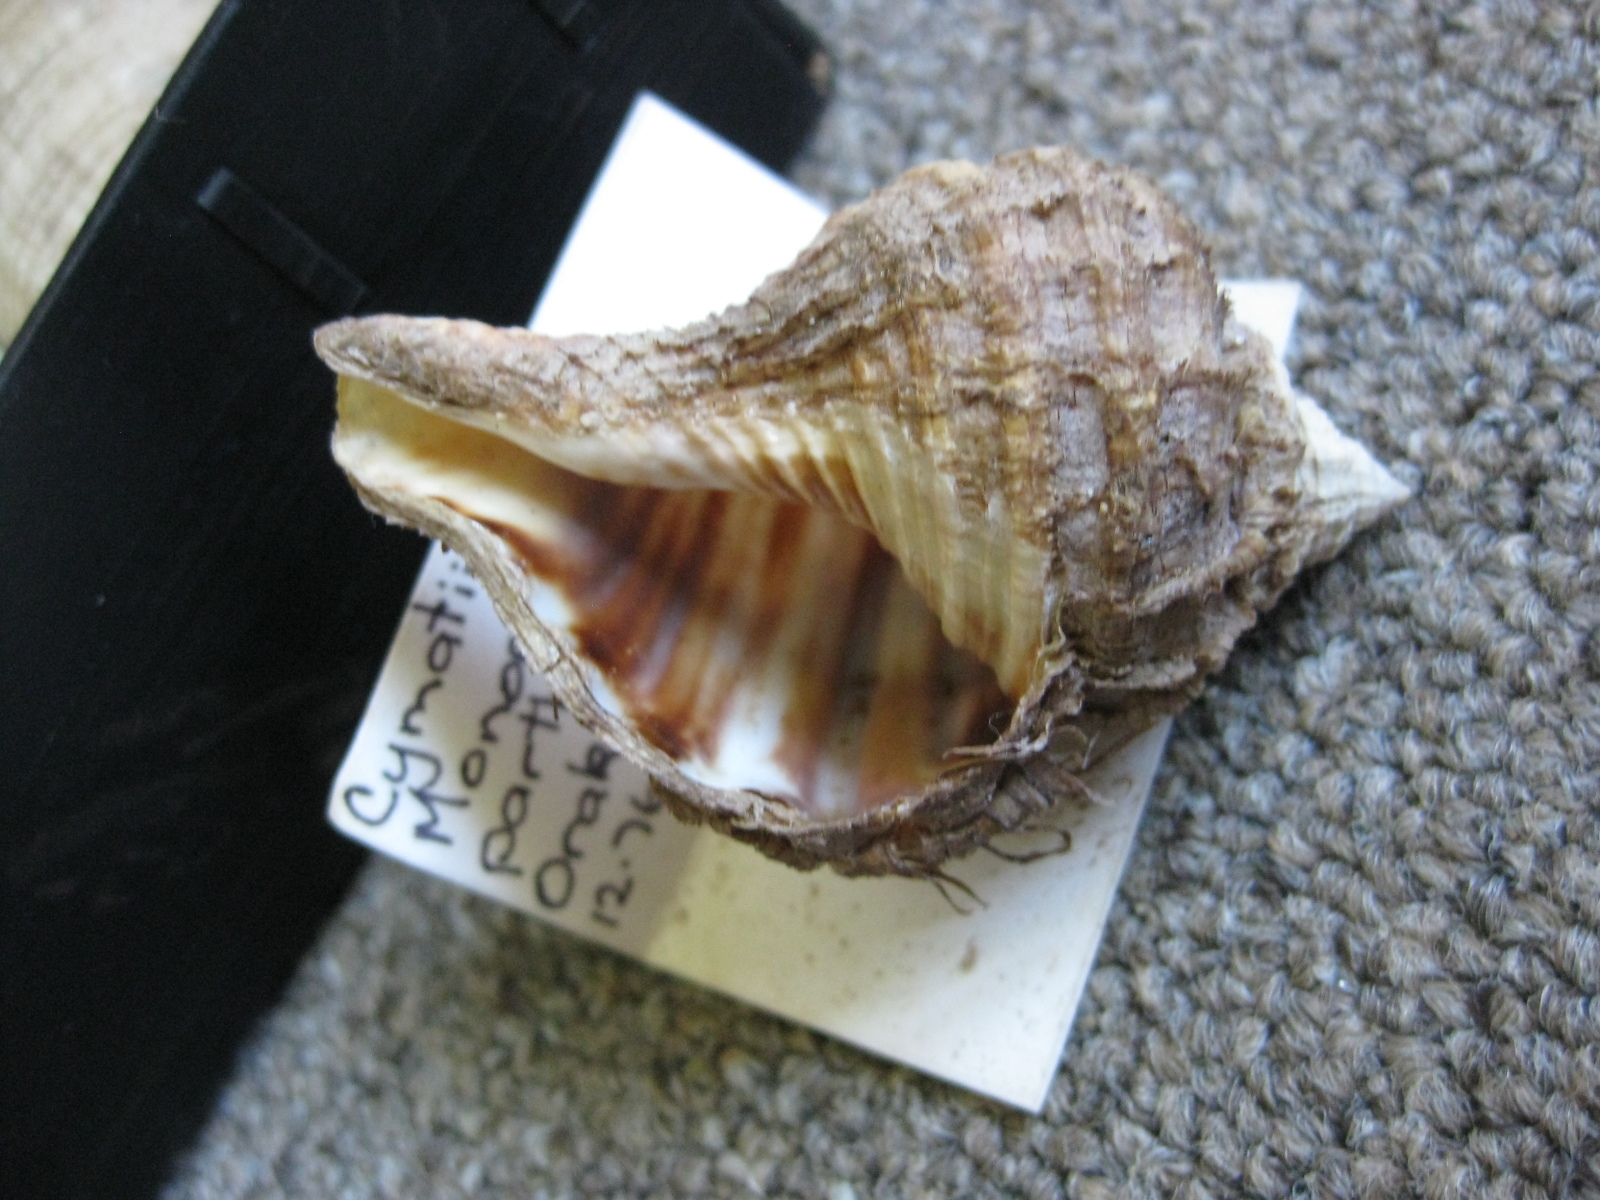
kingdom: Animalia
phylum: Mollusca
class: Gastropoda
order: Littorinimorpha
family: Cymatiidae
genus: Monoplex
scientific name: Monoplex parthenopeus
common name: Giant triton
